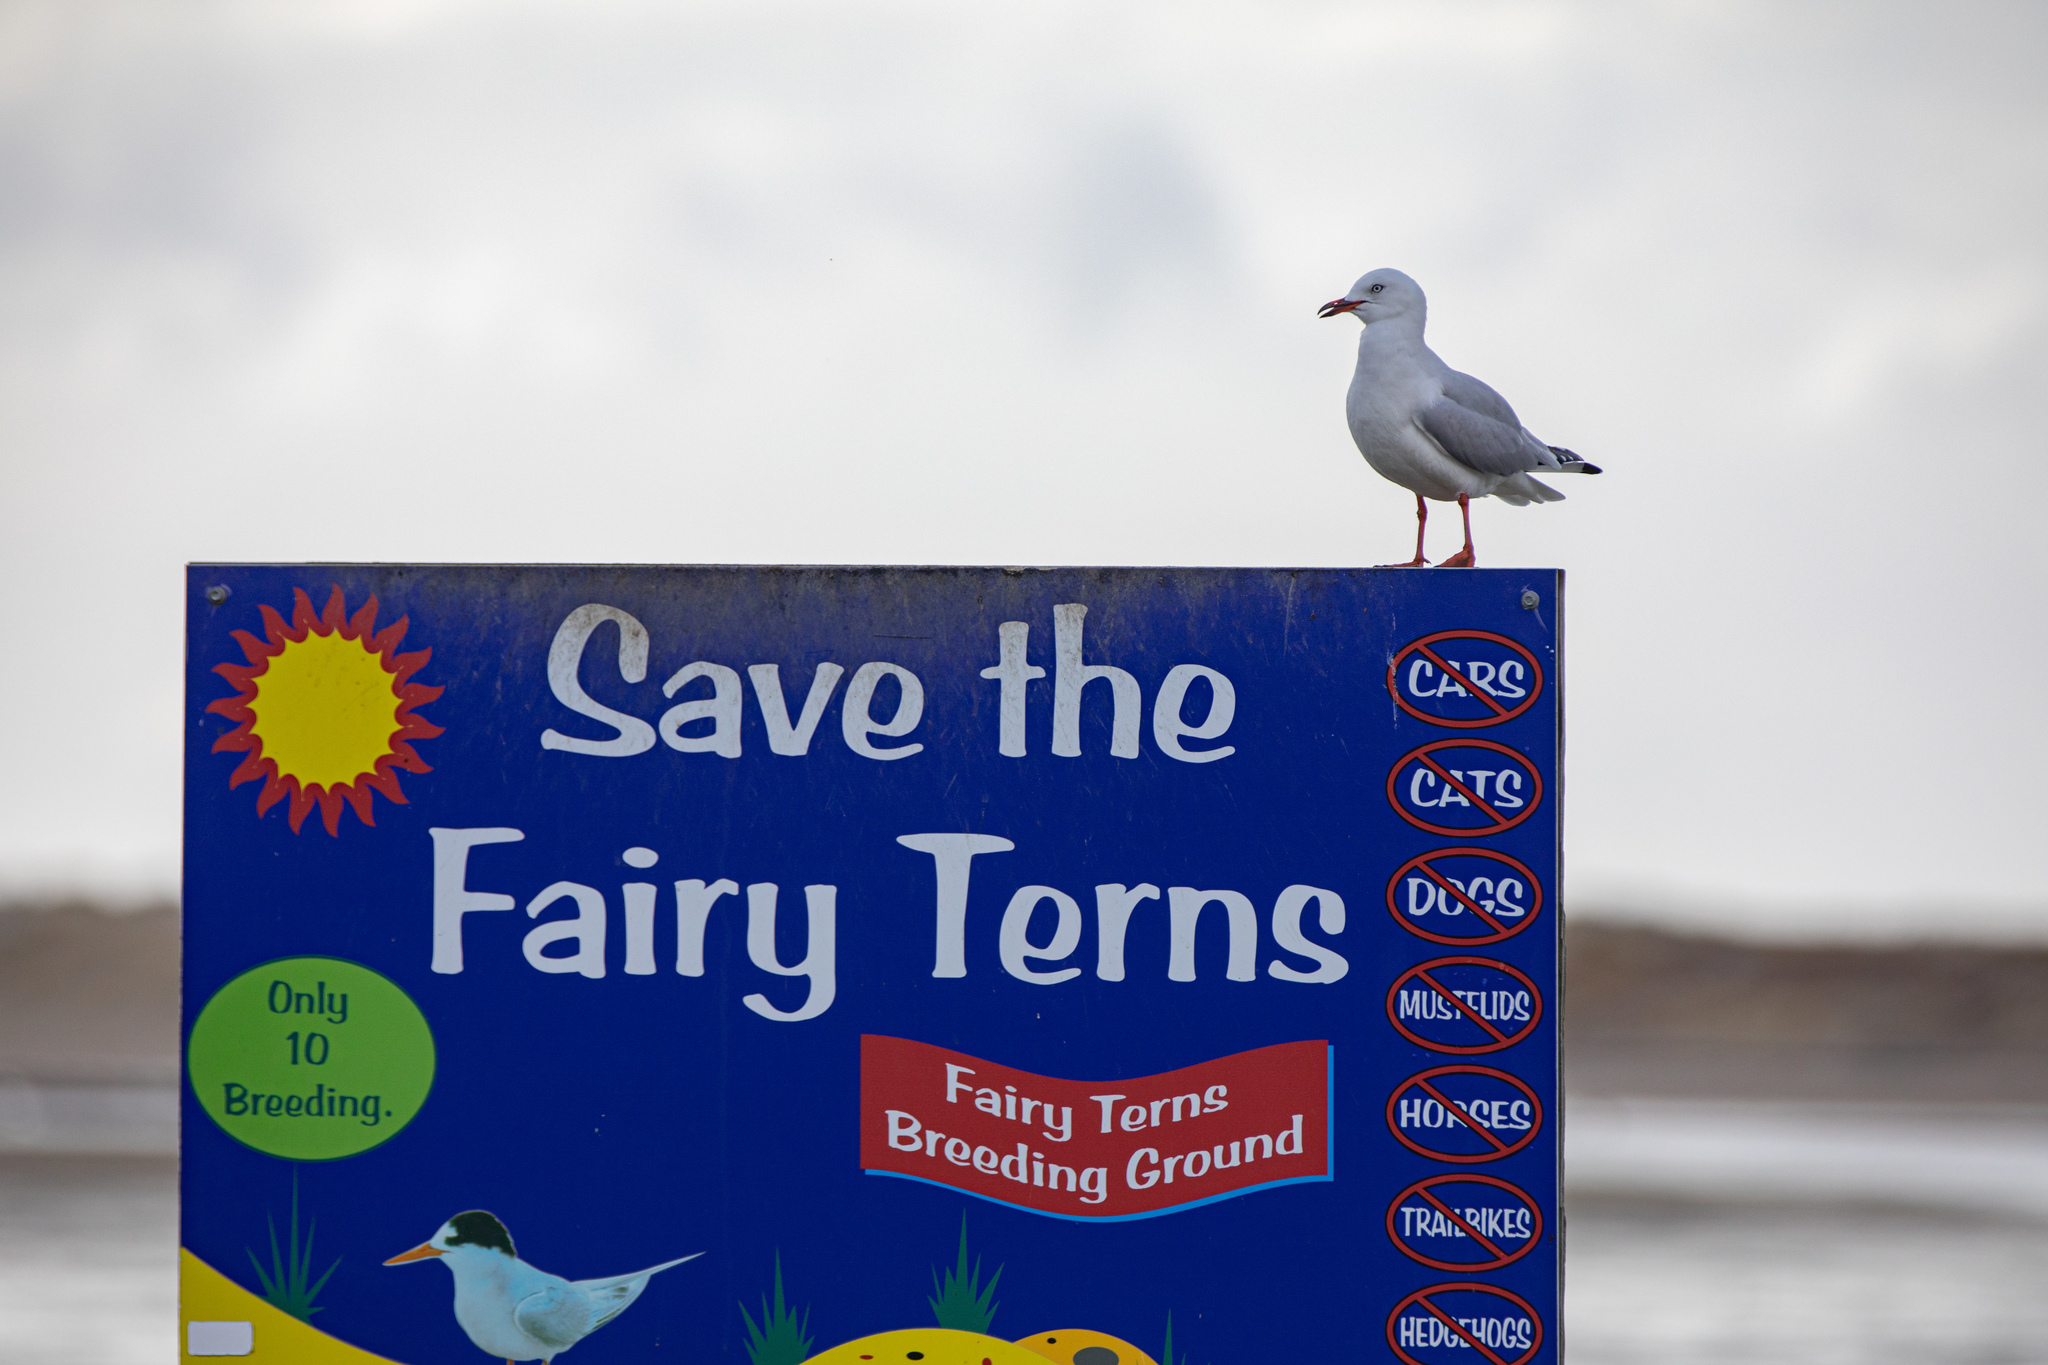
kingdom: Animalia
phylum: Chordata
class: Aves
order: Charadriiformes
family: Laridae
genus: Chroicocephalus
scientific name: Chroicocephalus novaehollandiae
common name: Silver gull
